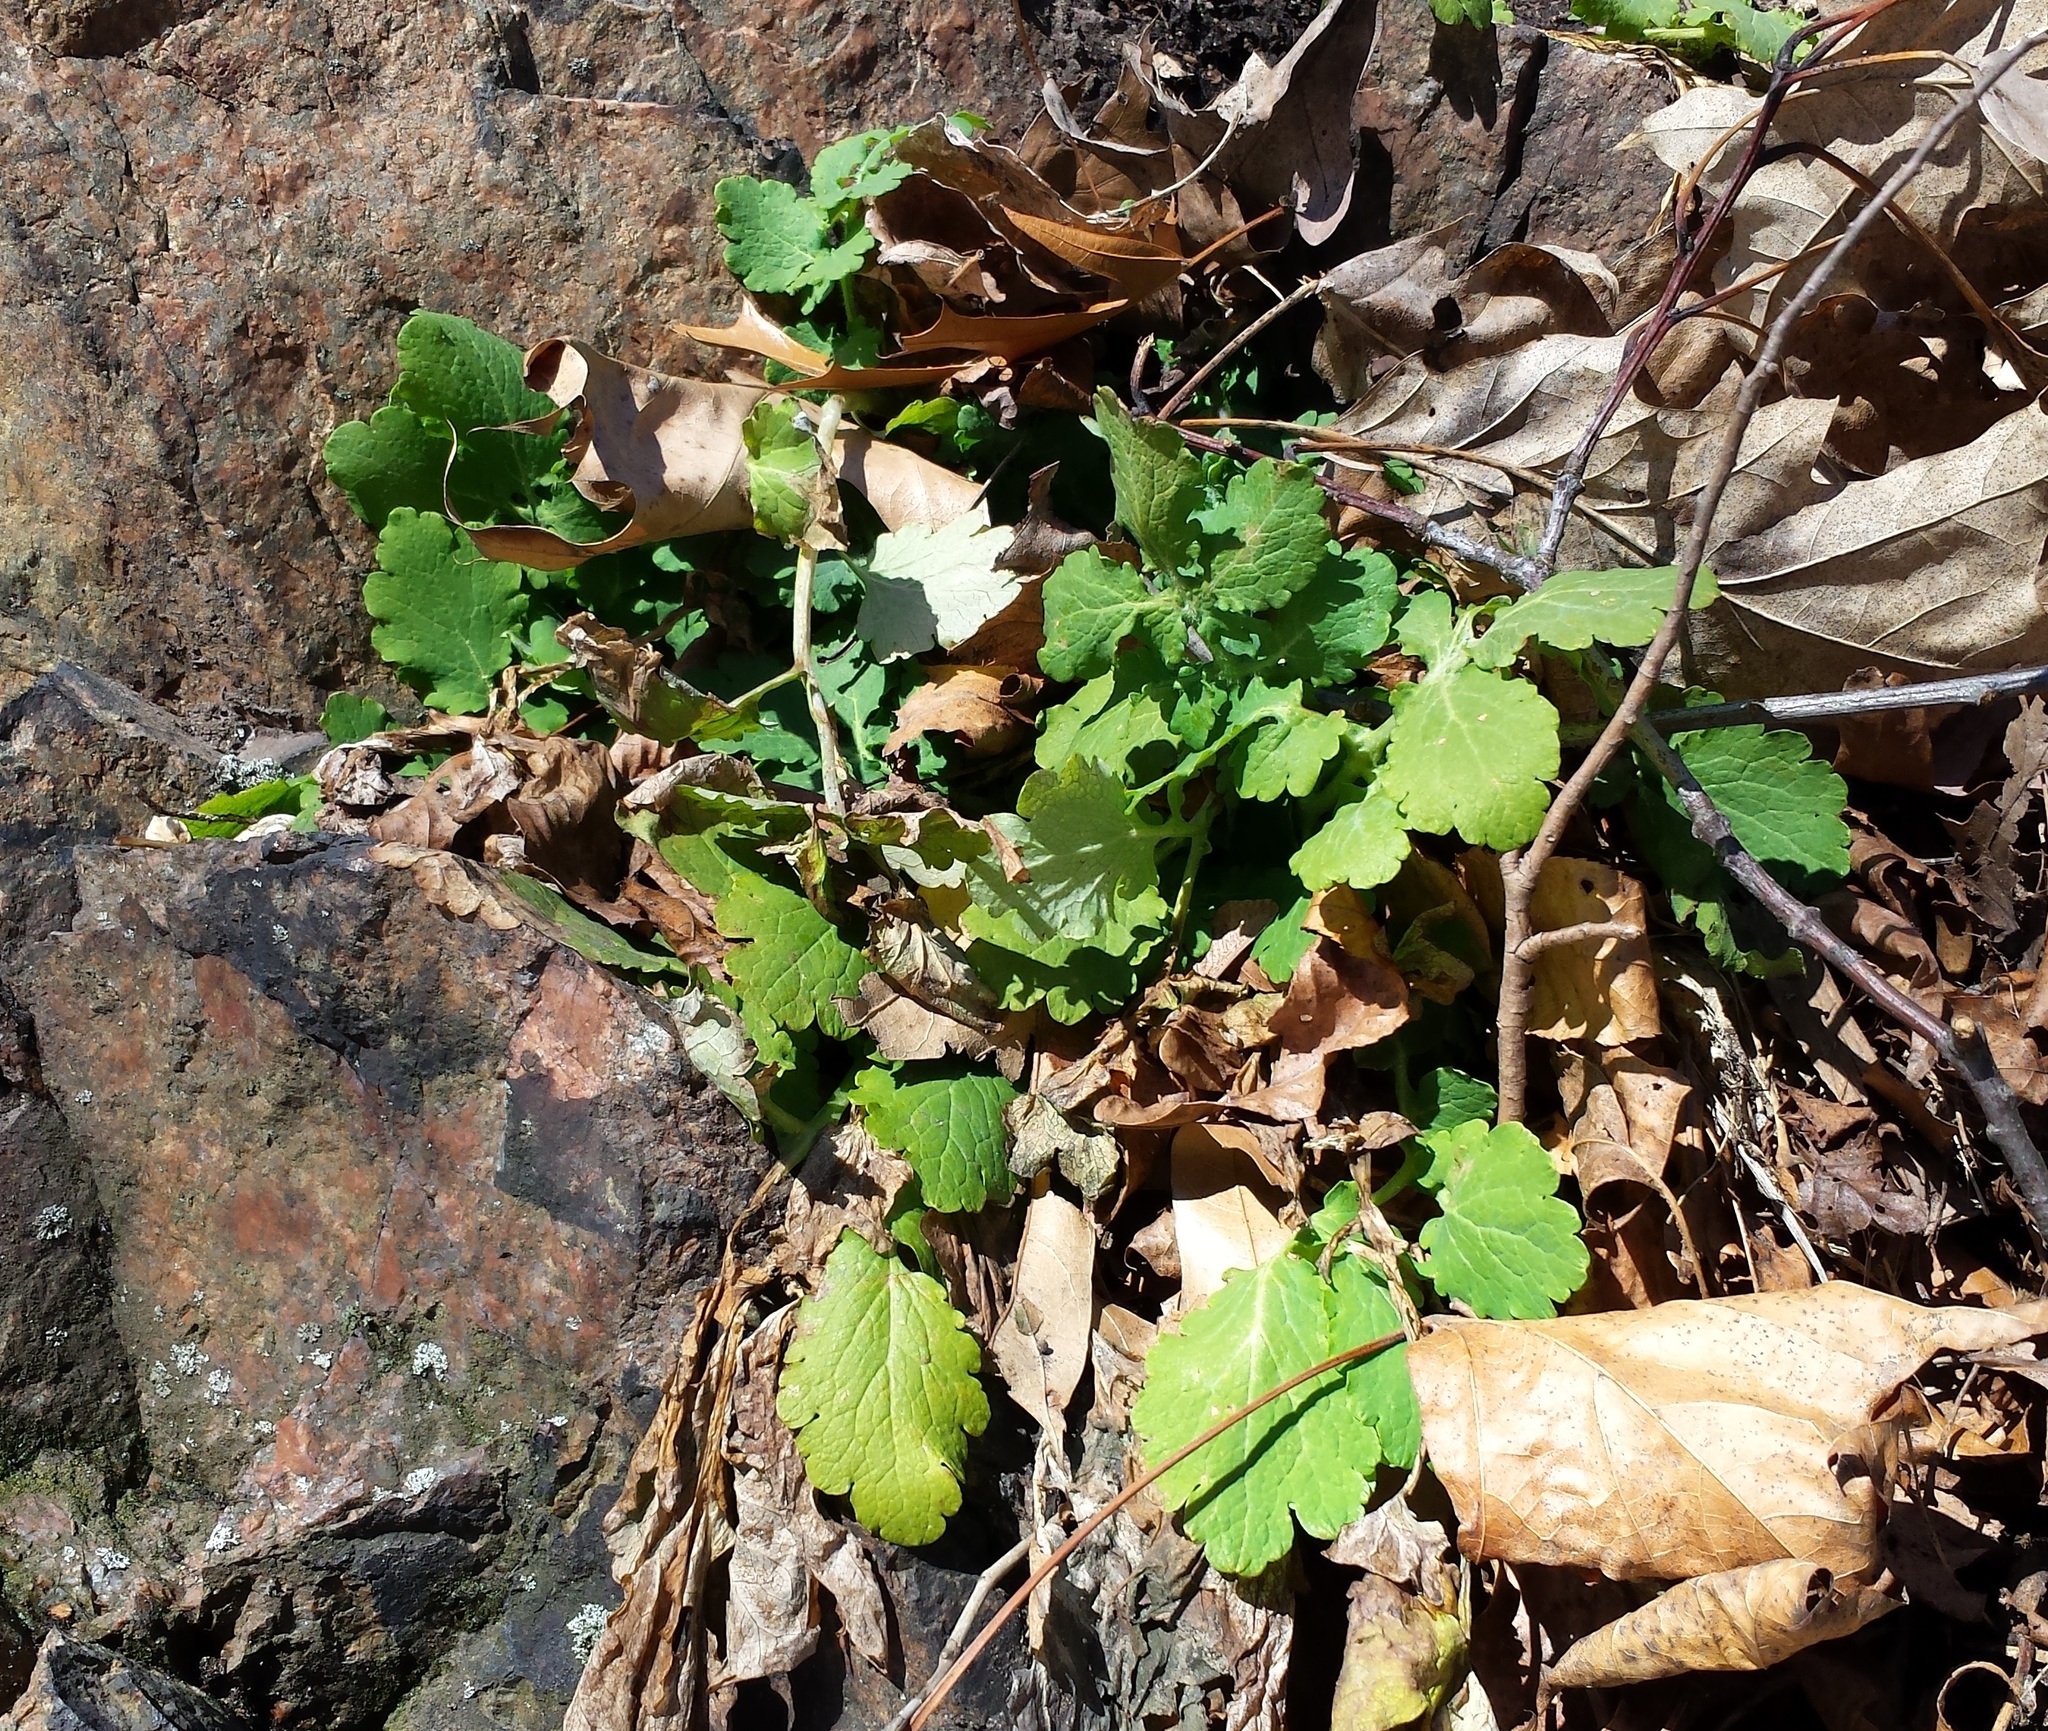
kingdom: Plantae
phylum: Tracheophyta
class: Magnoliopsida
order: Ranunculales
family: Papaveraceae
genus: Chelidonium
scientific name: Chelidonium majus
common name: Greater celandine
